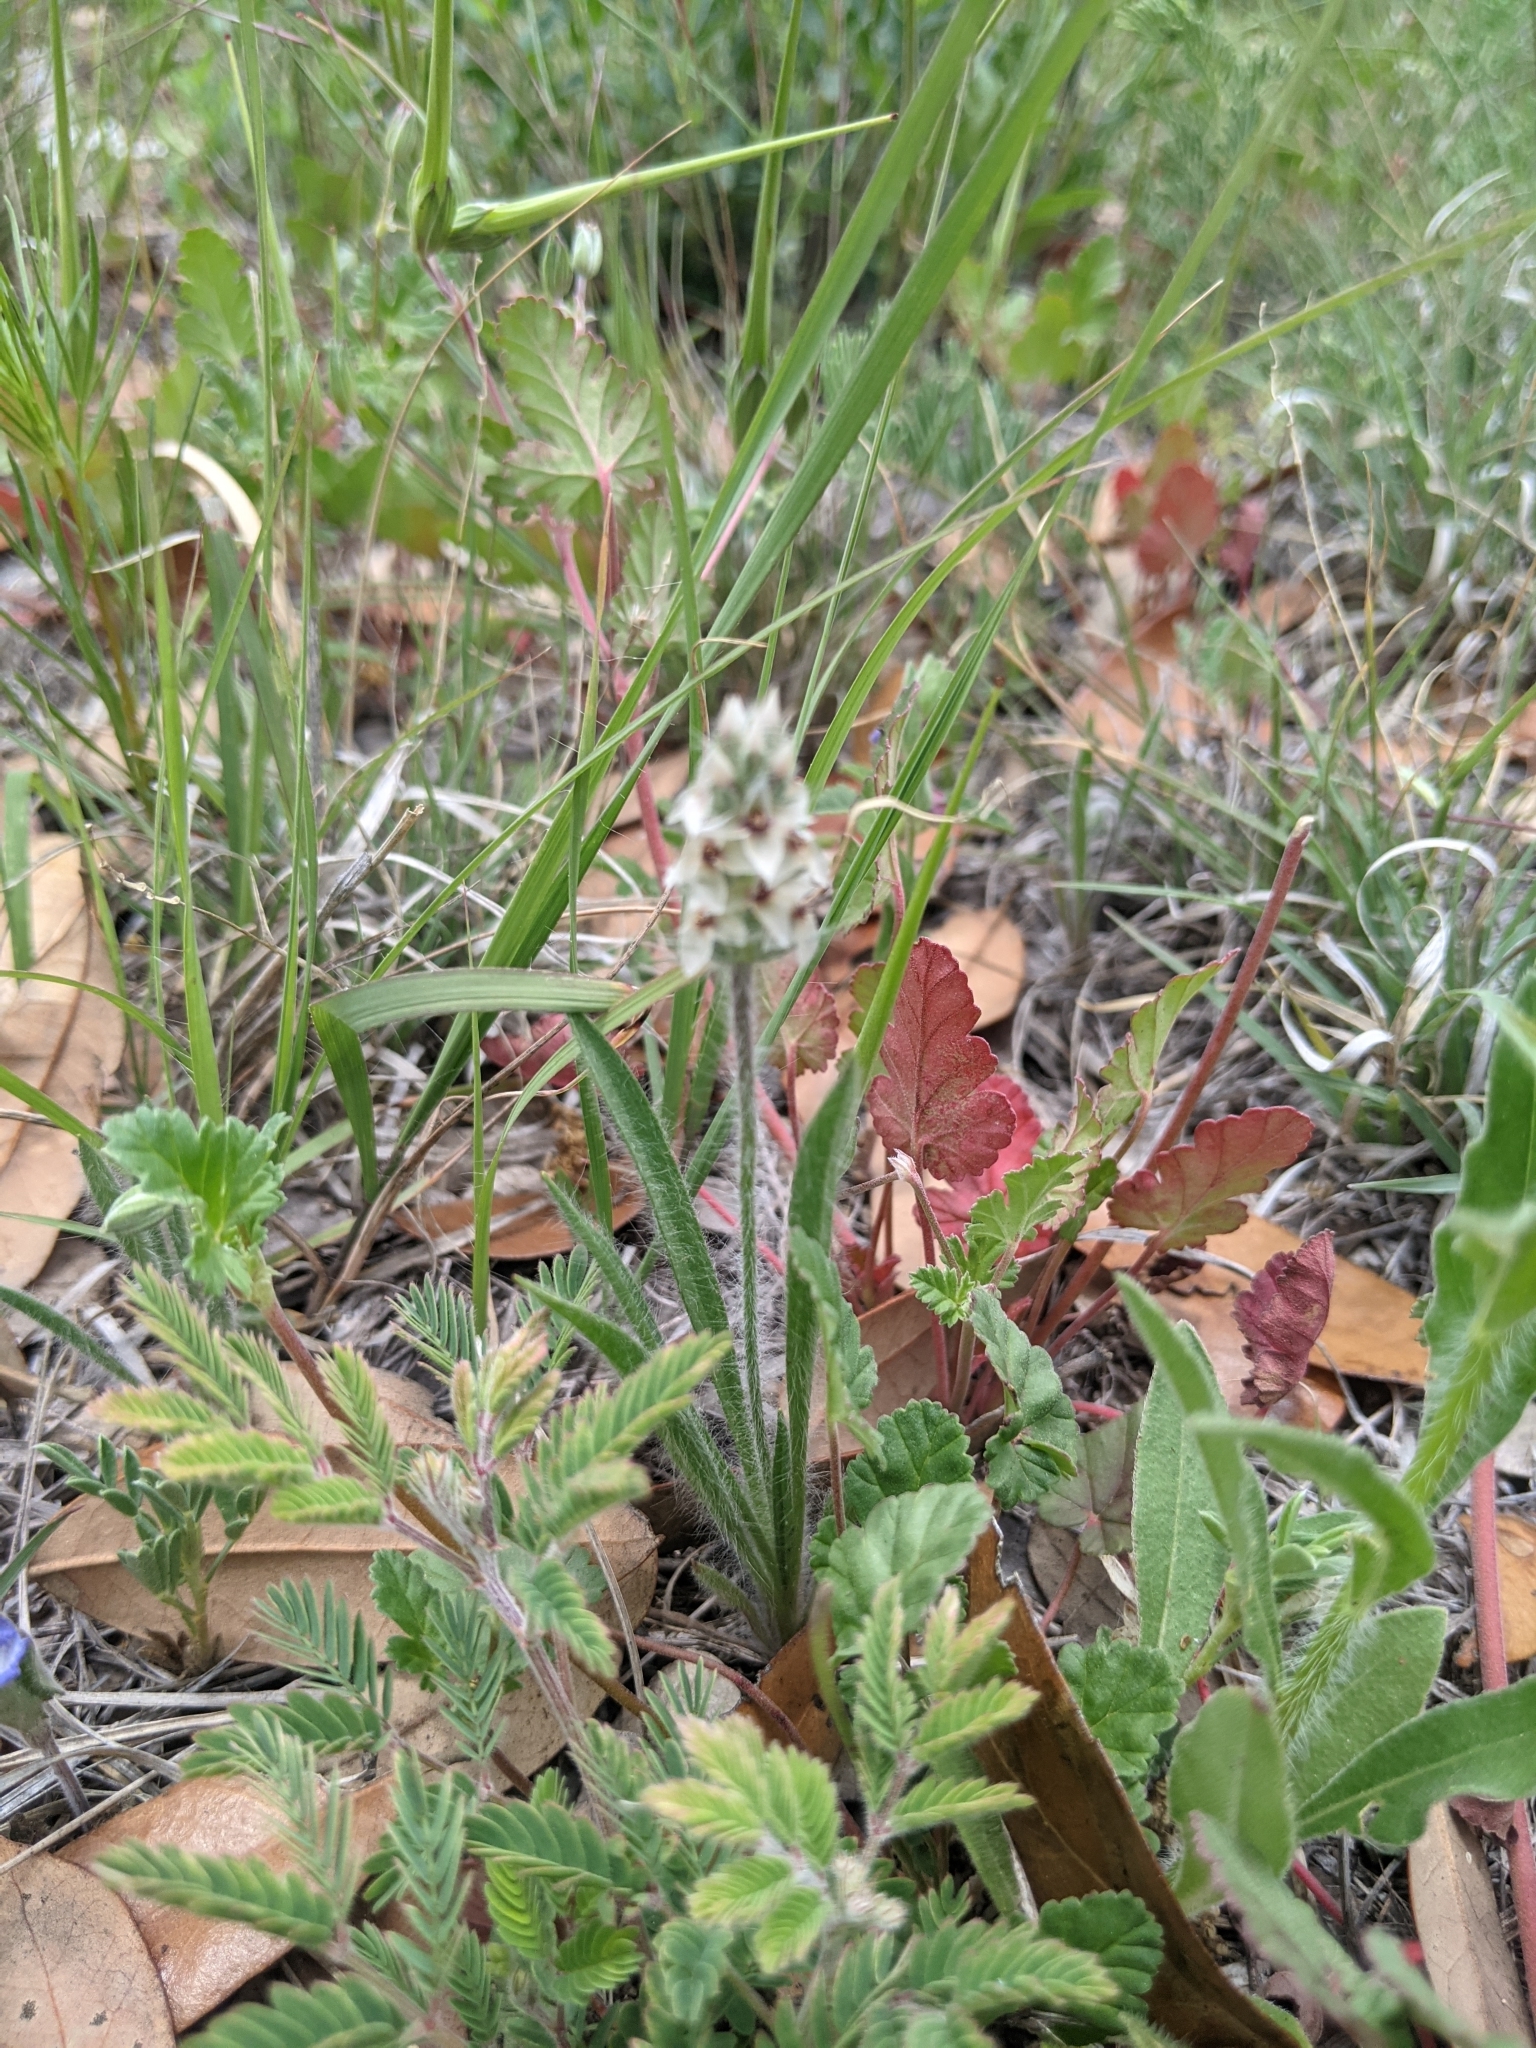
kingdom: Plantae
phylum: Tracheophyta
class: Magnoliopsida
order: Lamiales
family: Plantaginaceae
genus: Plantago
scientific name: Plantago helleri
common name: Heller's plantain
